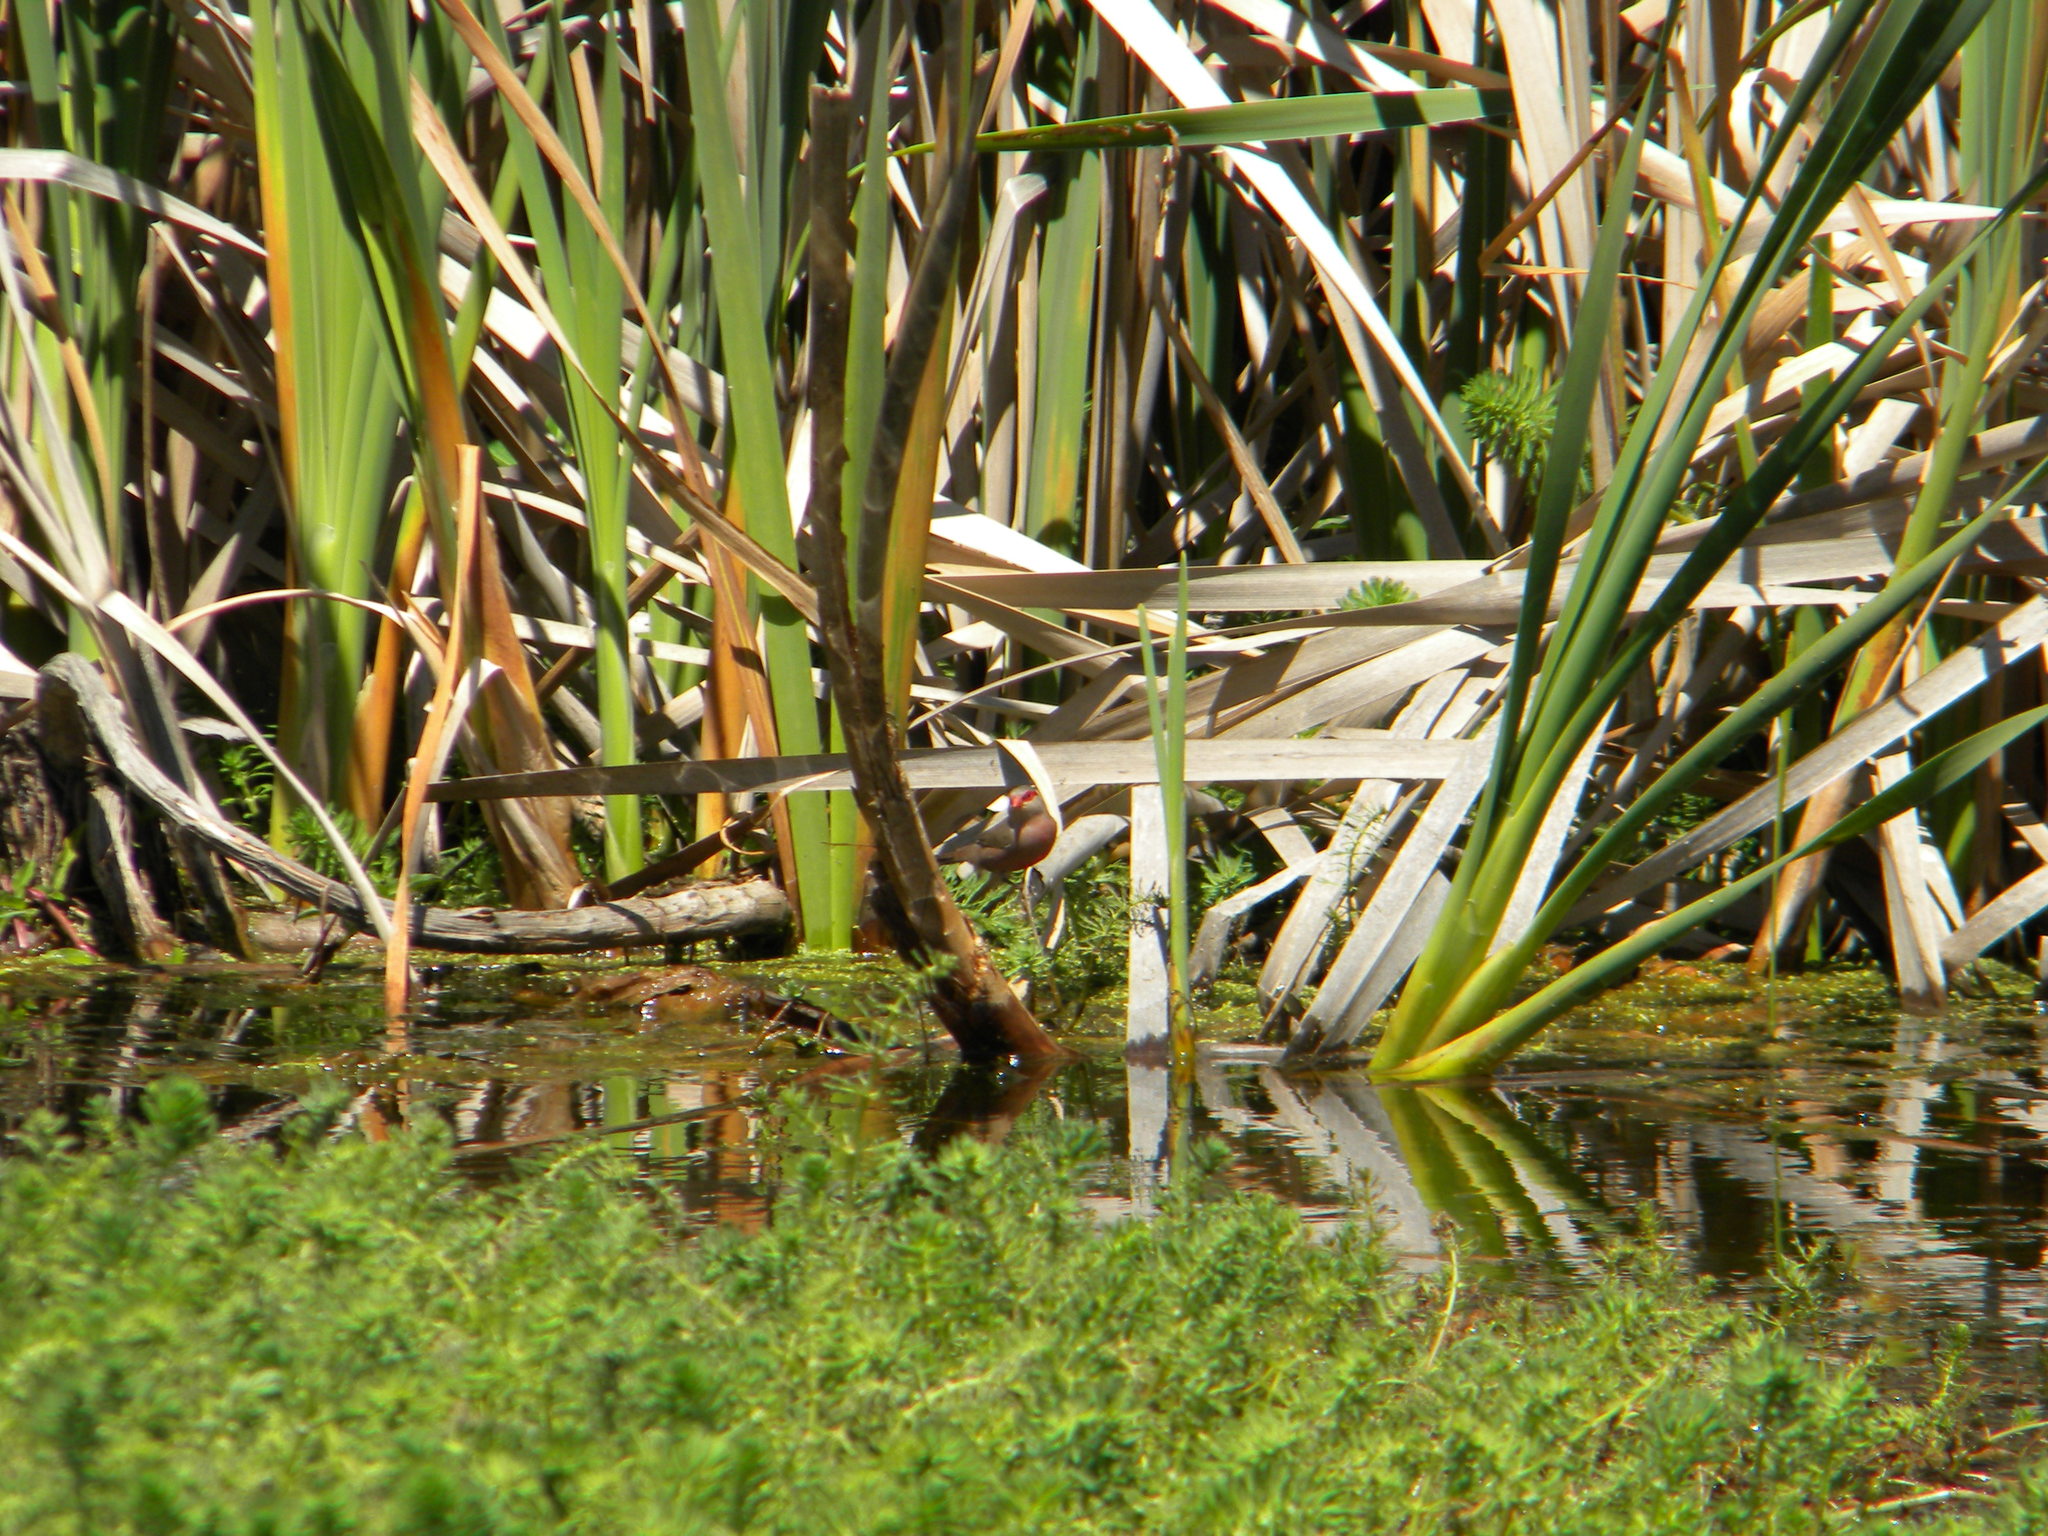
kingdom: Animalia
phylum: Chordata
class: Aves
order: Passeriformes
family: Estrildidae
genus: Estrilda
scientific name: Estrilda astrild
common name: Common waxbill
